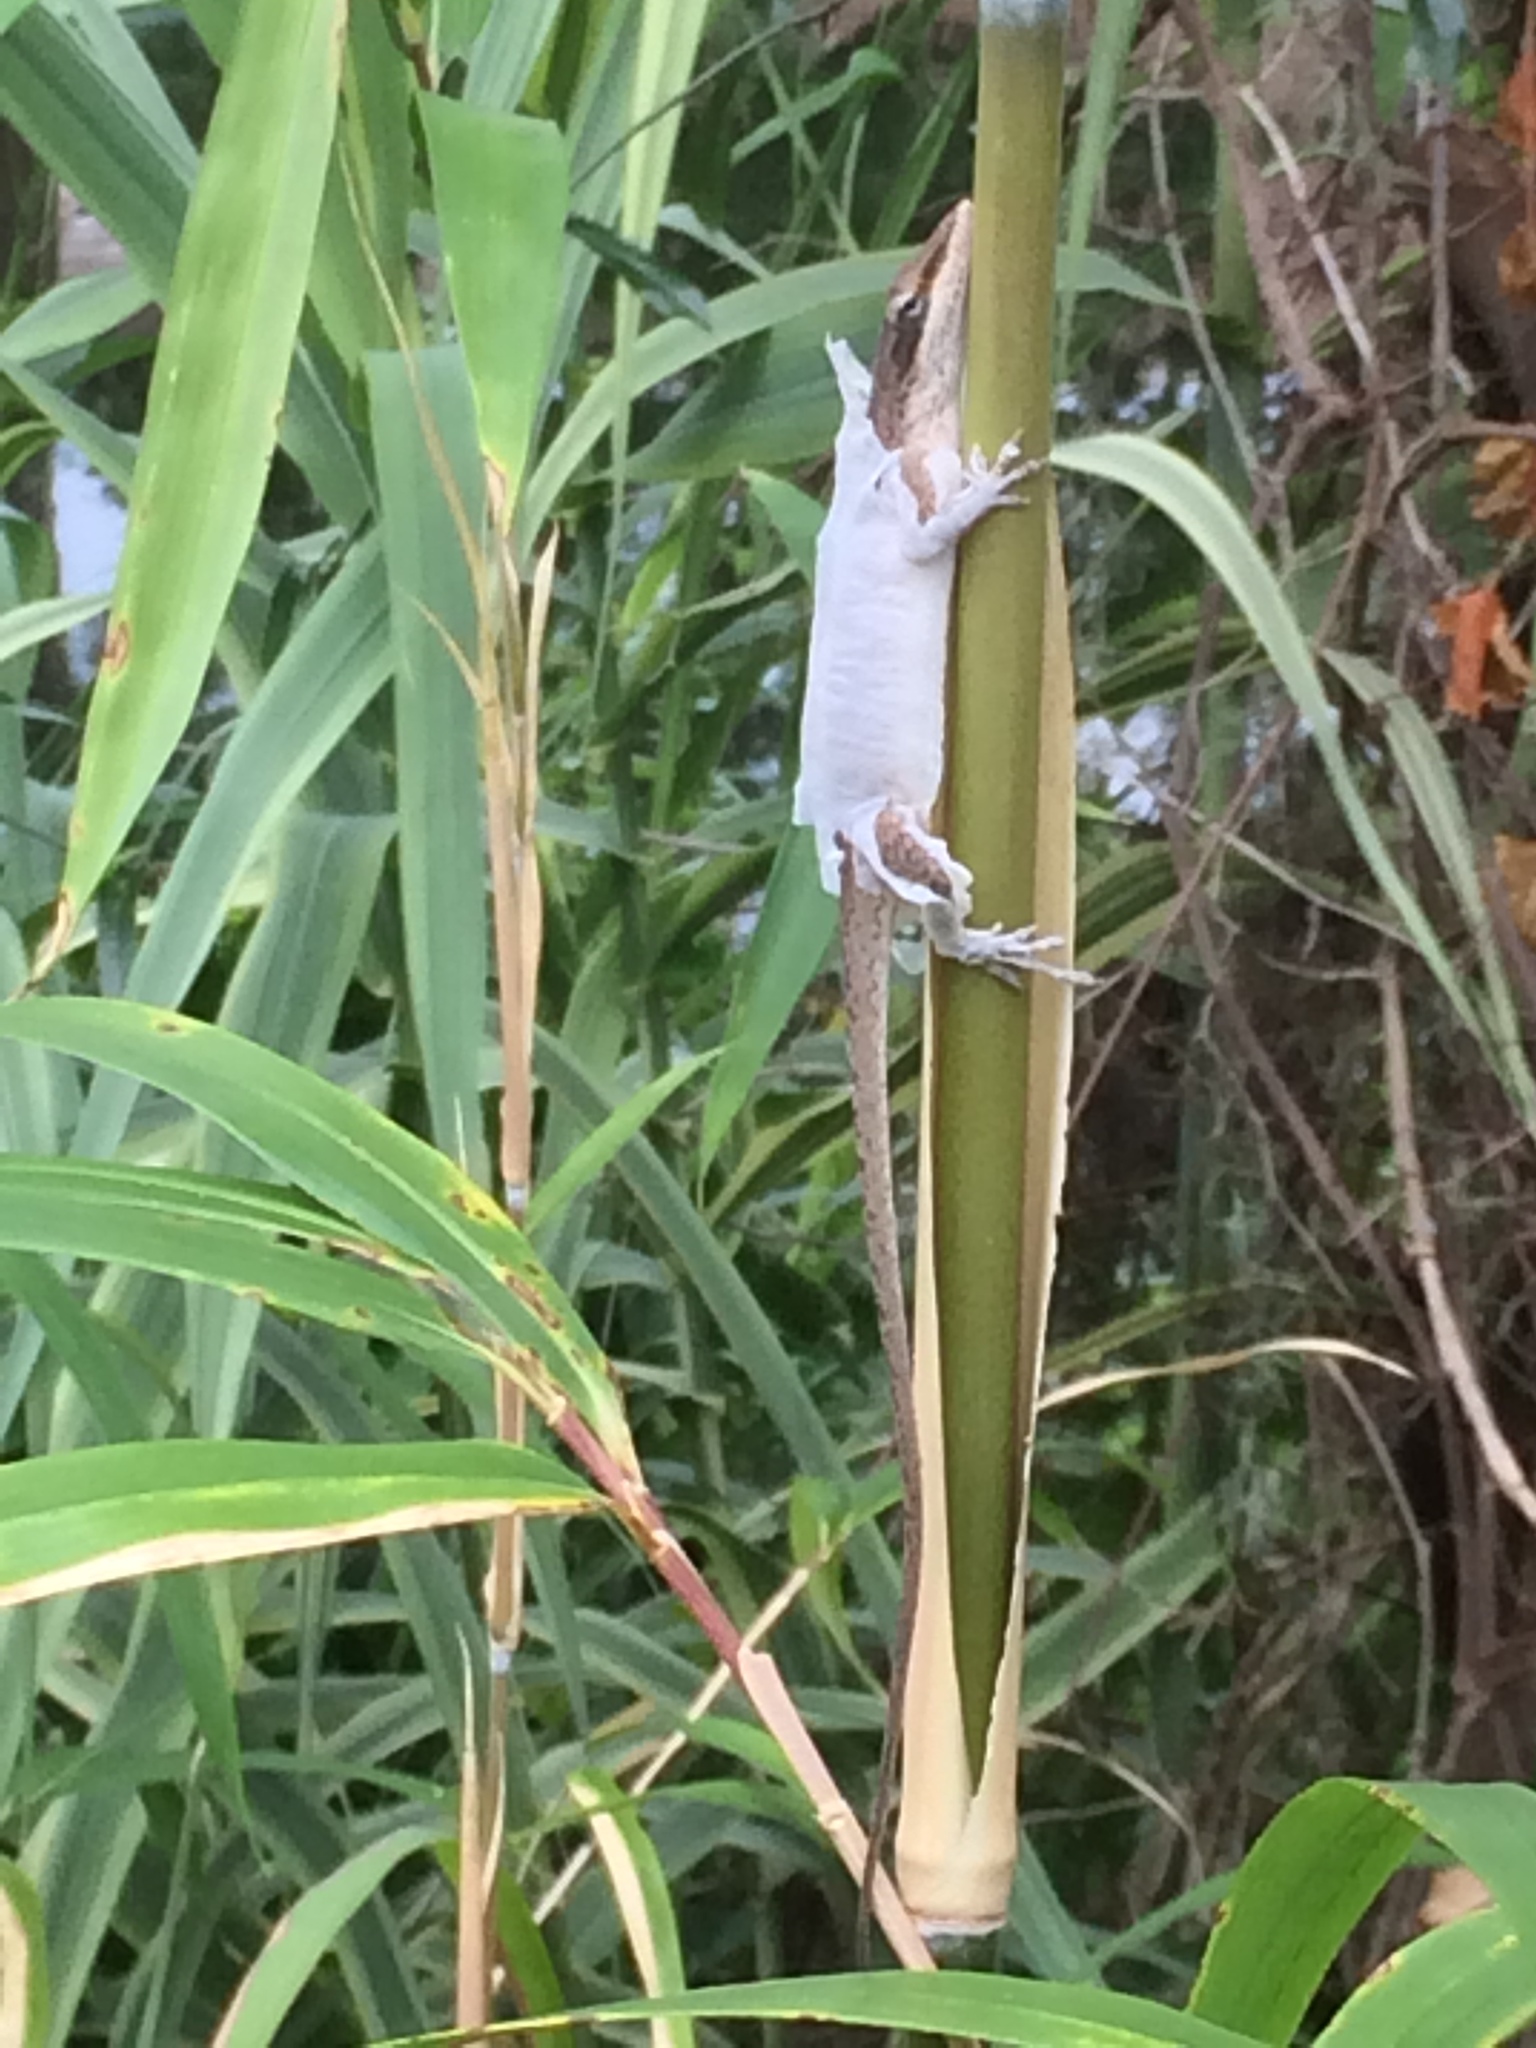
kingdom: Animalia
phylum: Chordata
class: Squamata
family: Dactyloidae
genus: Anolis
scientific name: Anolis carolinensis
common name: Green anole
